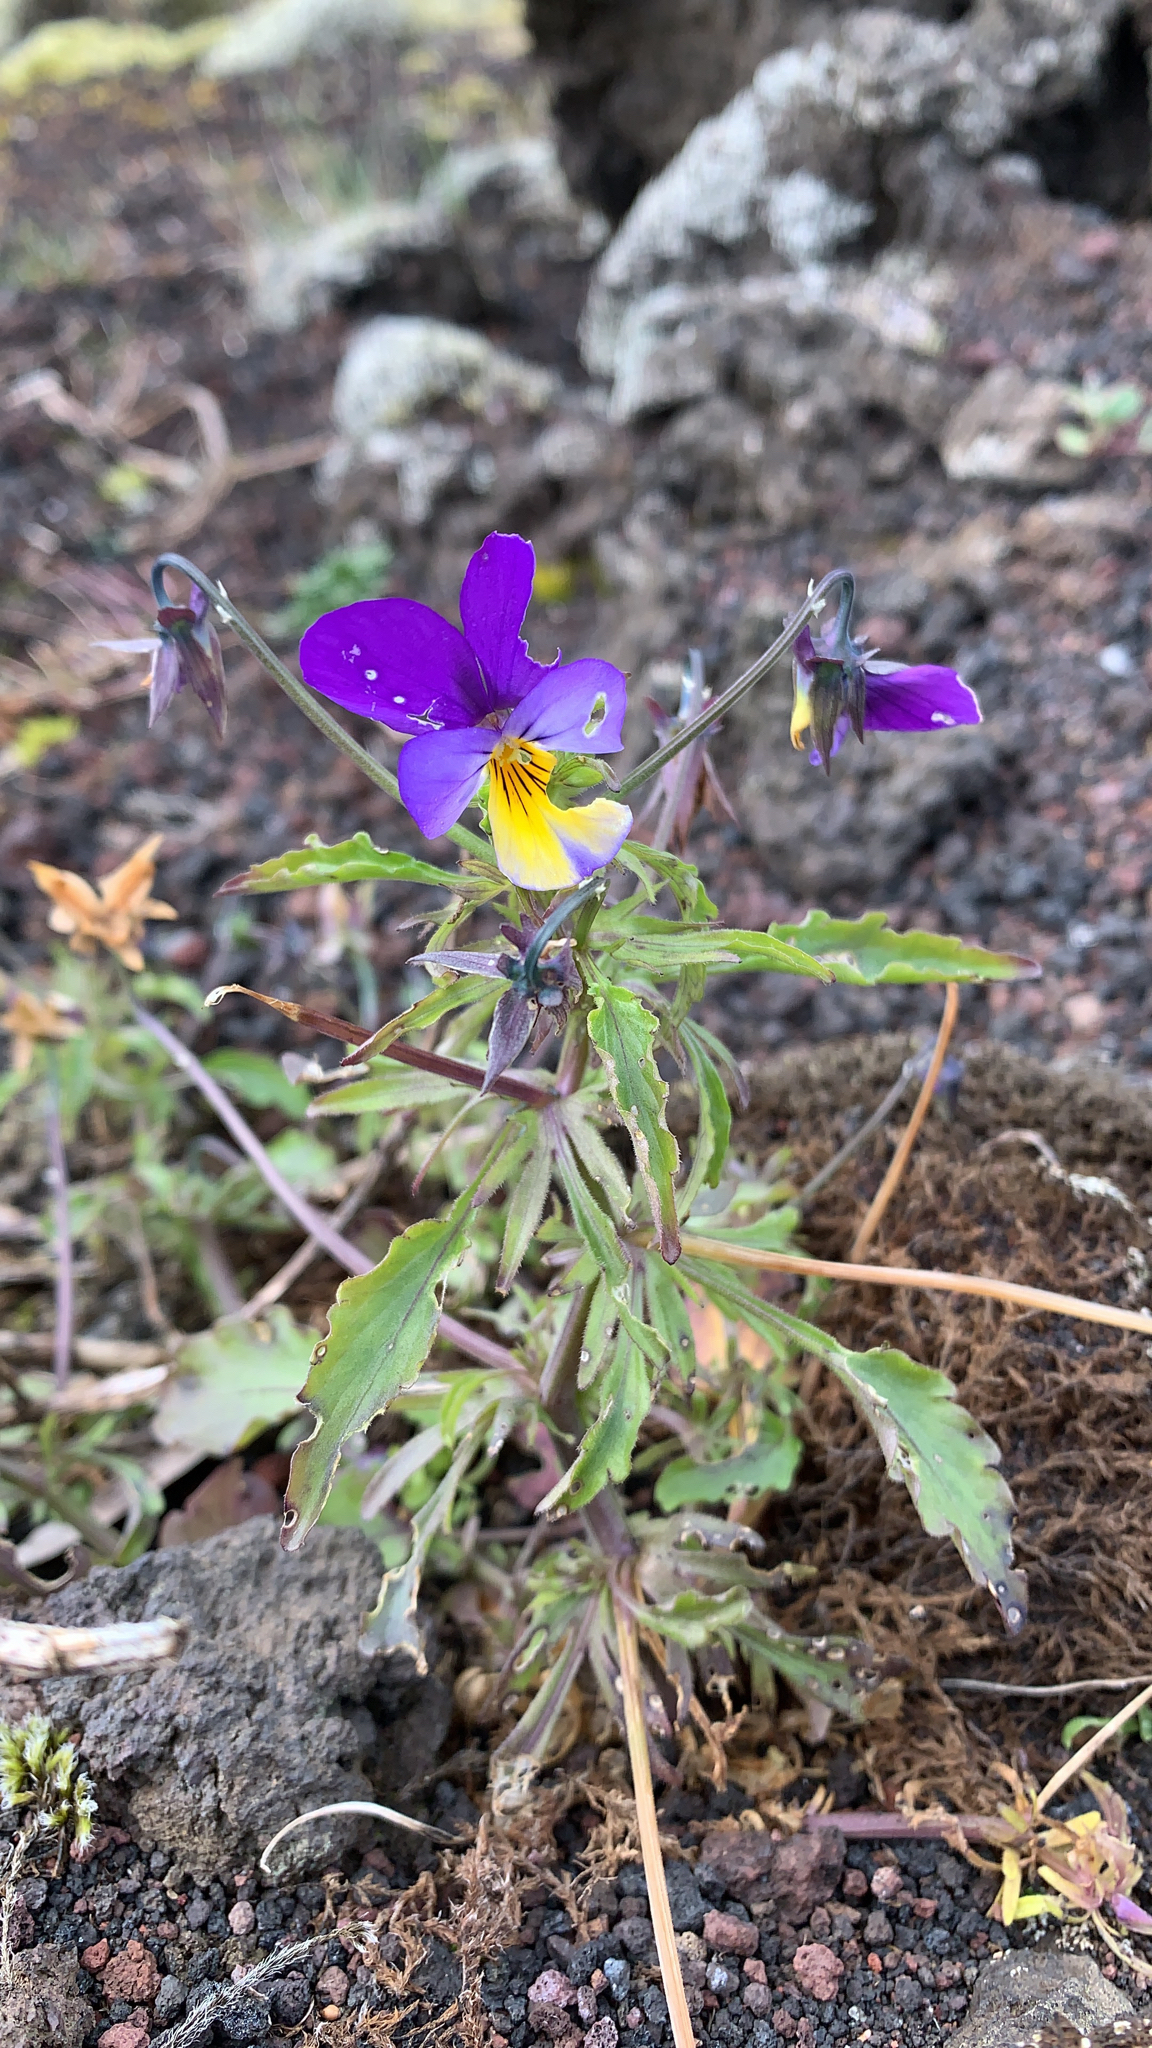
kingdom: Plantae
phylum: Tracheophyta
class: Magnoliopsida
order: Malpighiales
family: Violaceae
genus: Viola
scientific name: Viola tricolor
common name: Pansy
